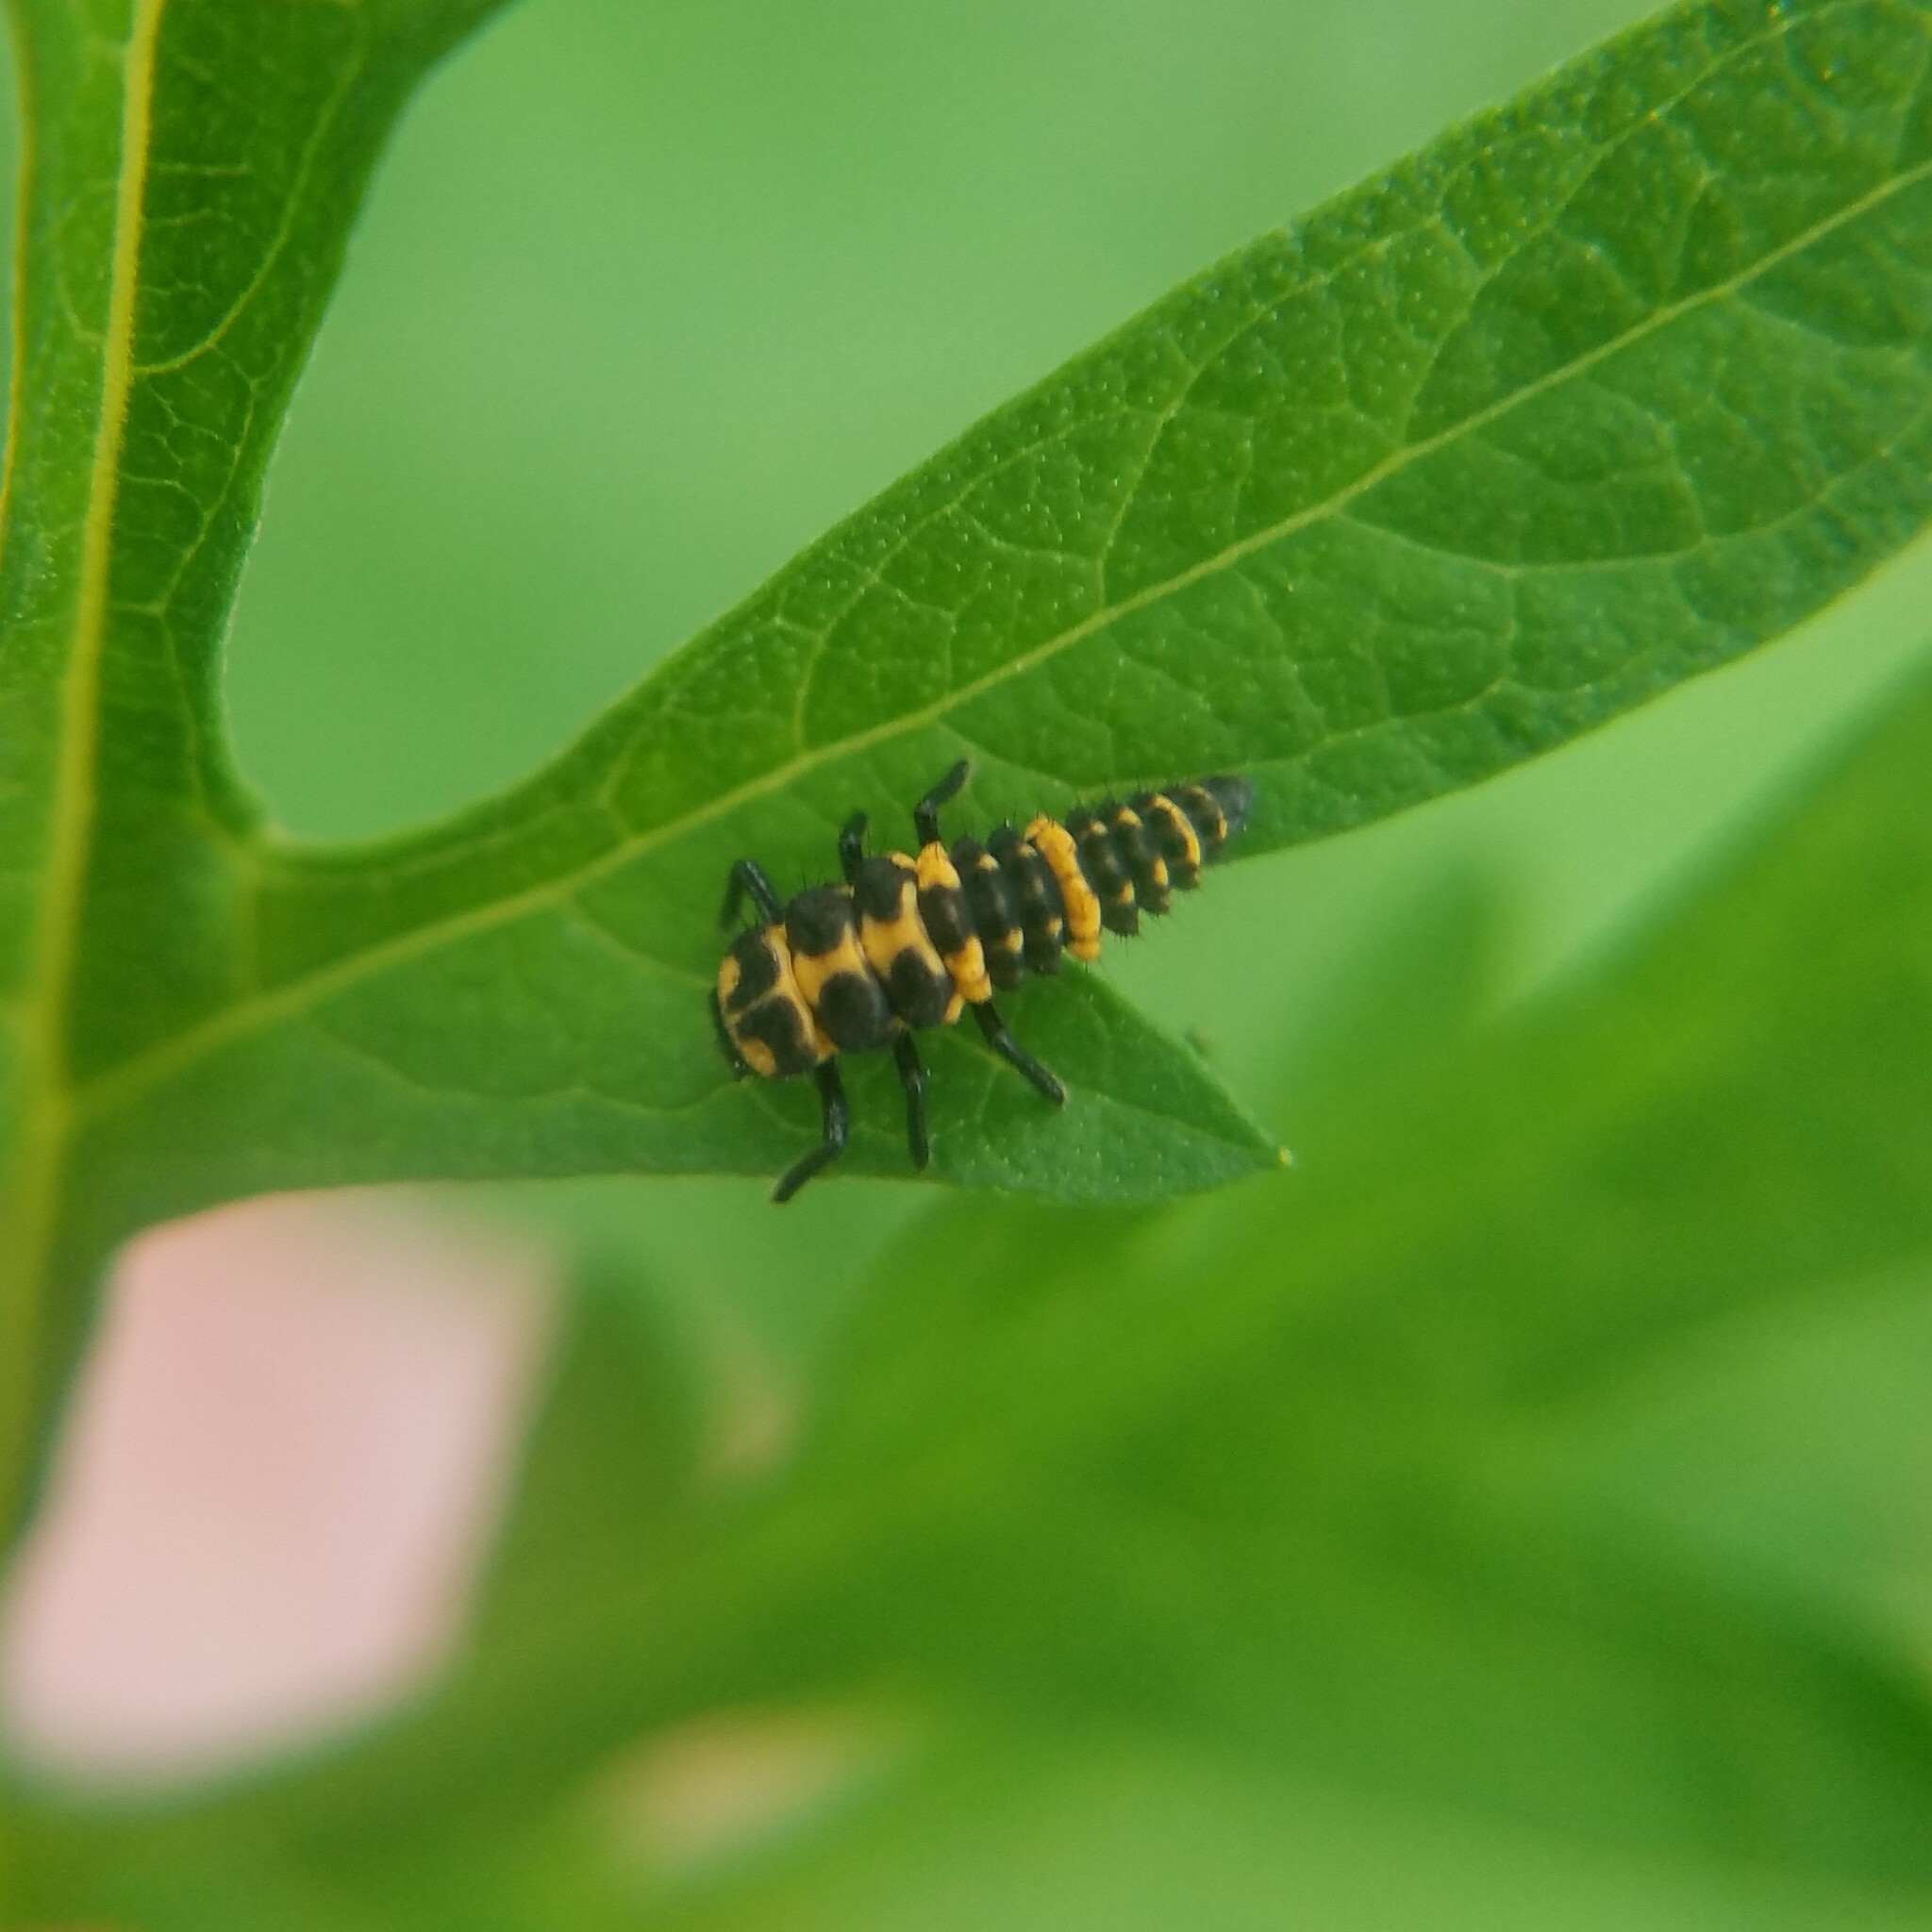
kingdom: Animalia
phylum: Arthropoda
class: Insecta
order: Coleoptera
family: Coccinellidae
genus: Coleomegilla
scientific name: Coleomegilla maculata
